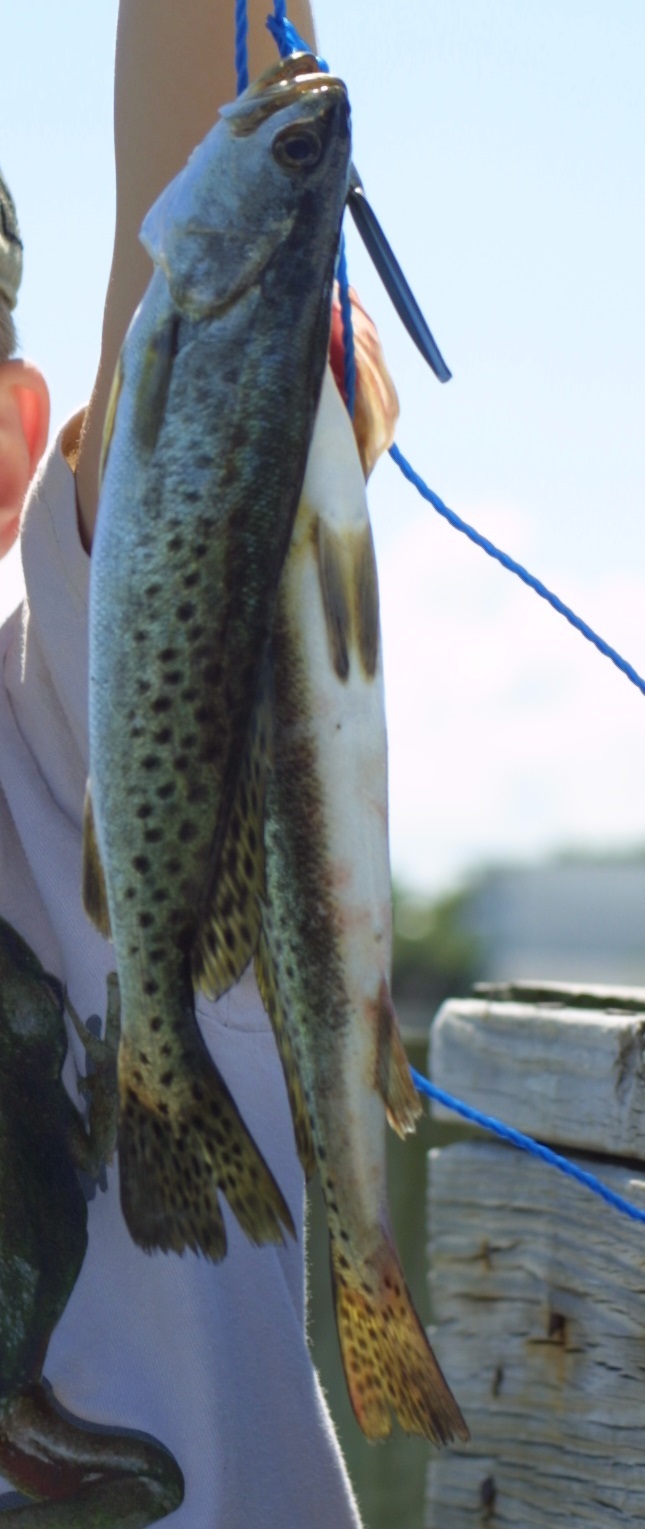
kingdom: Animalia
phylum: Chordata
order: Perciformes
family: Sciaenidae
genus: Cynoscion
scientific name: Cynoscion nebulosus
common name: Spotted seatrout
